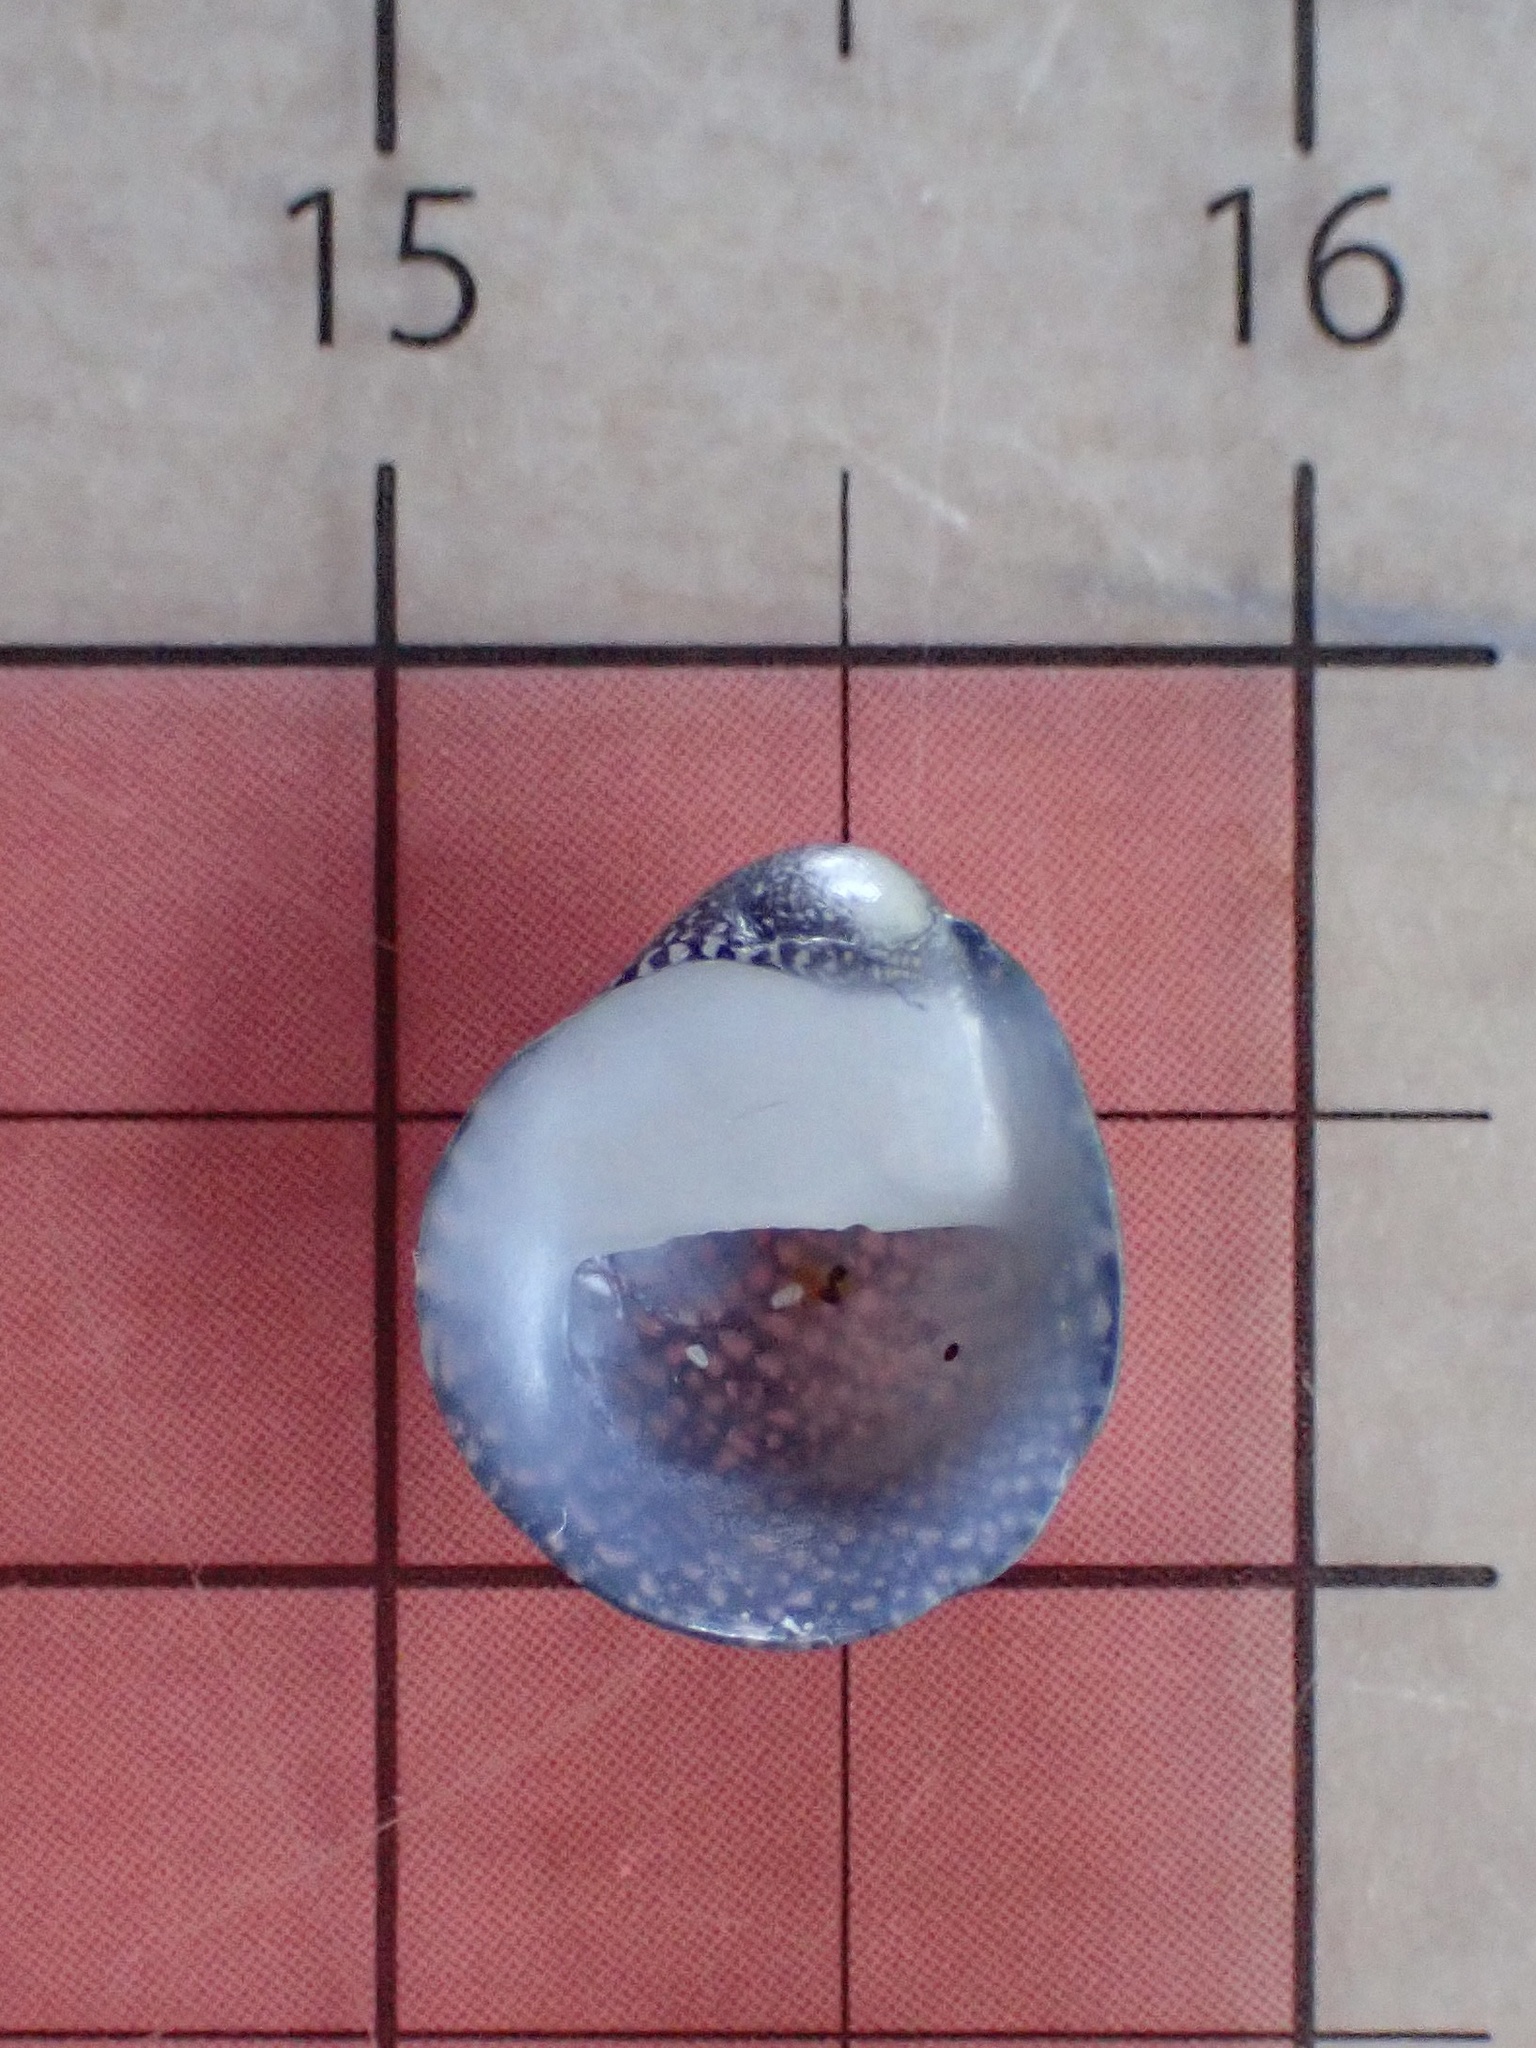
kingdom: Animalia
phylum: Mollusca
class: Gastropoda
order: Cycloneritida
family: Neritidae
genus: Neripteron
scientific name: Neripteron neglectum
